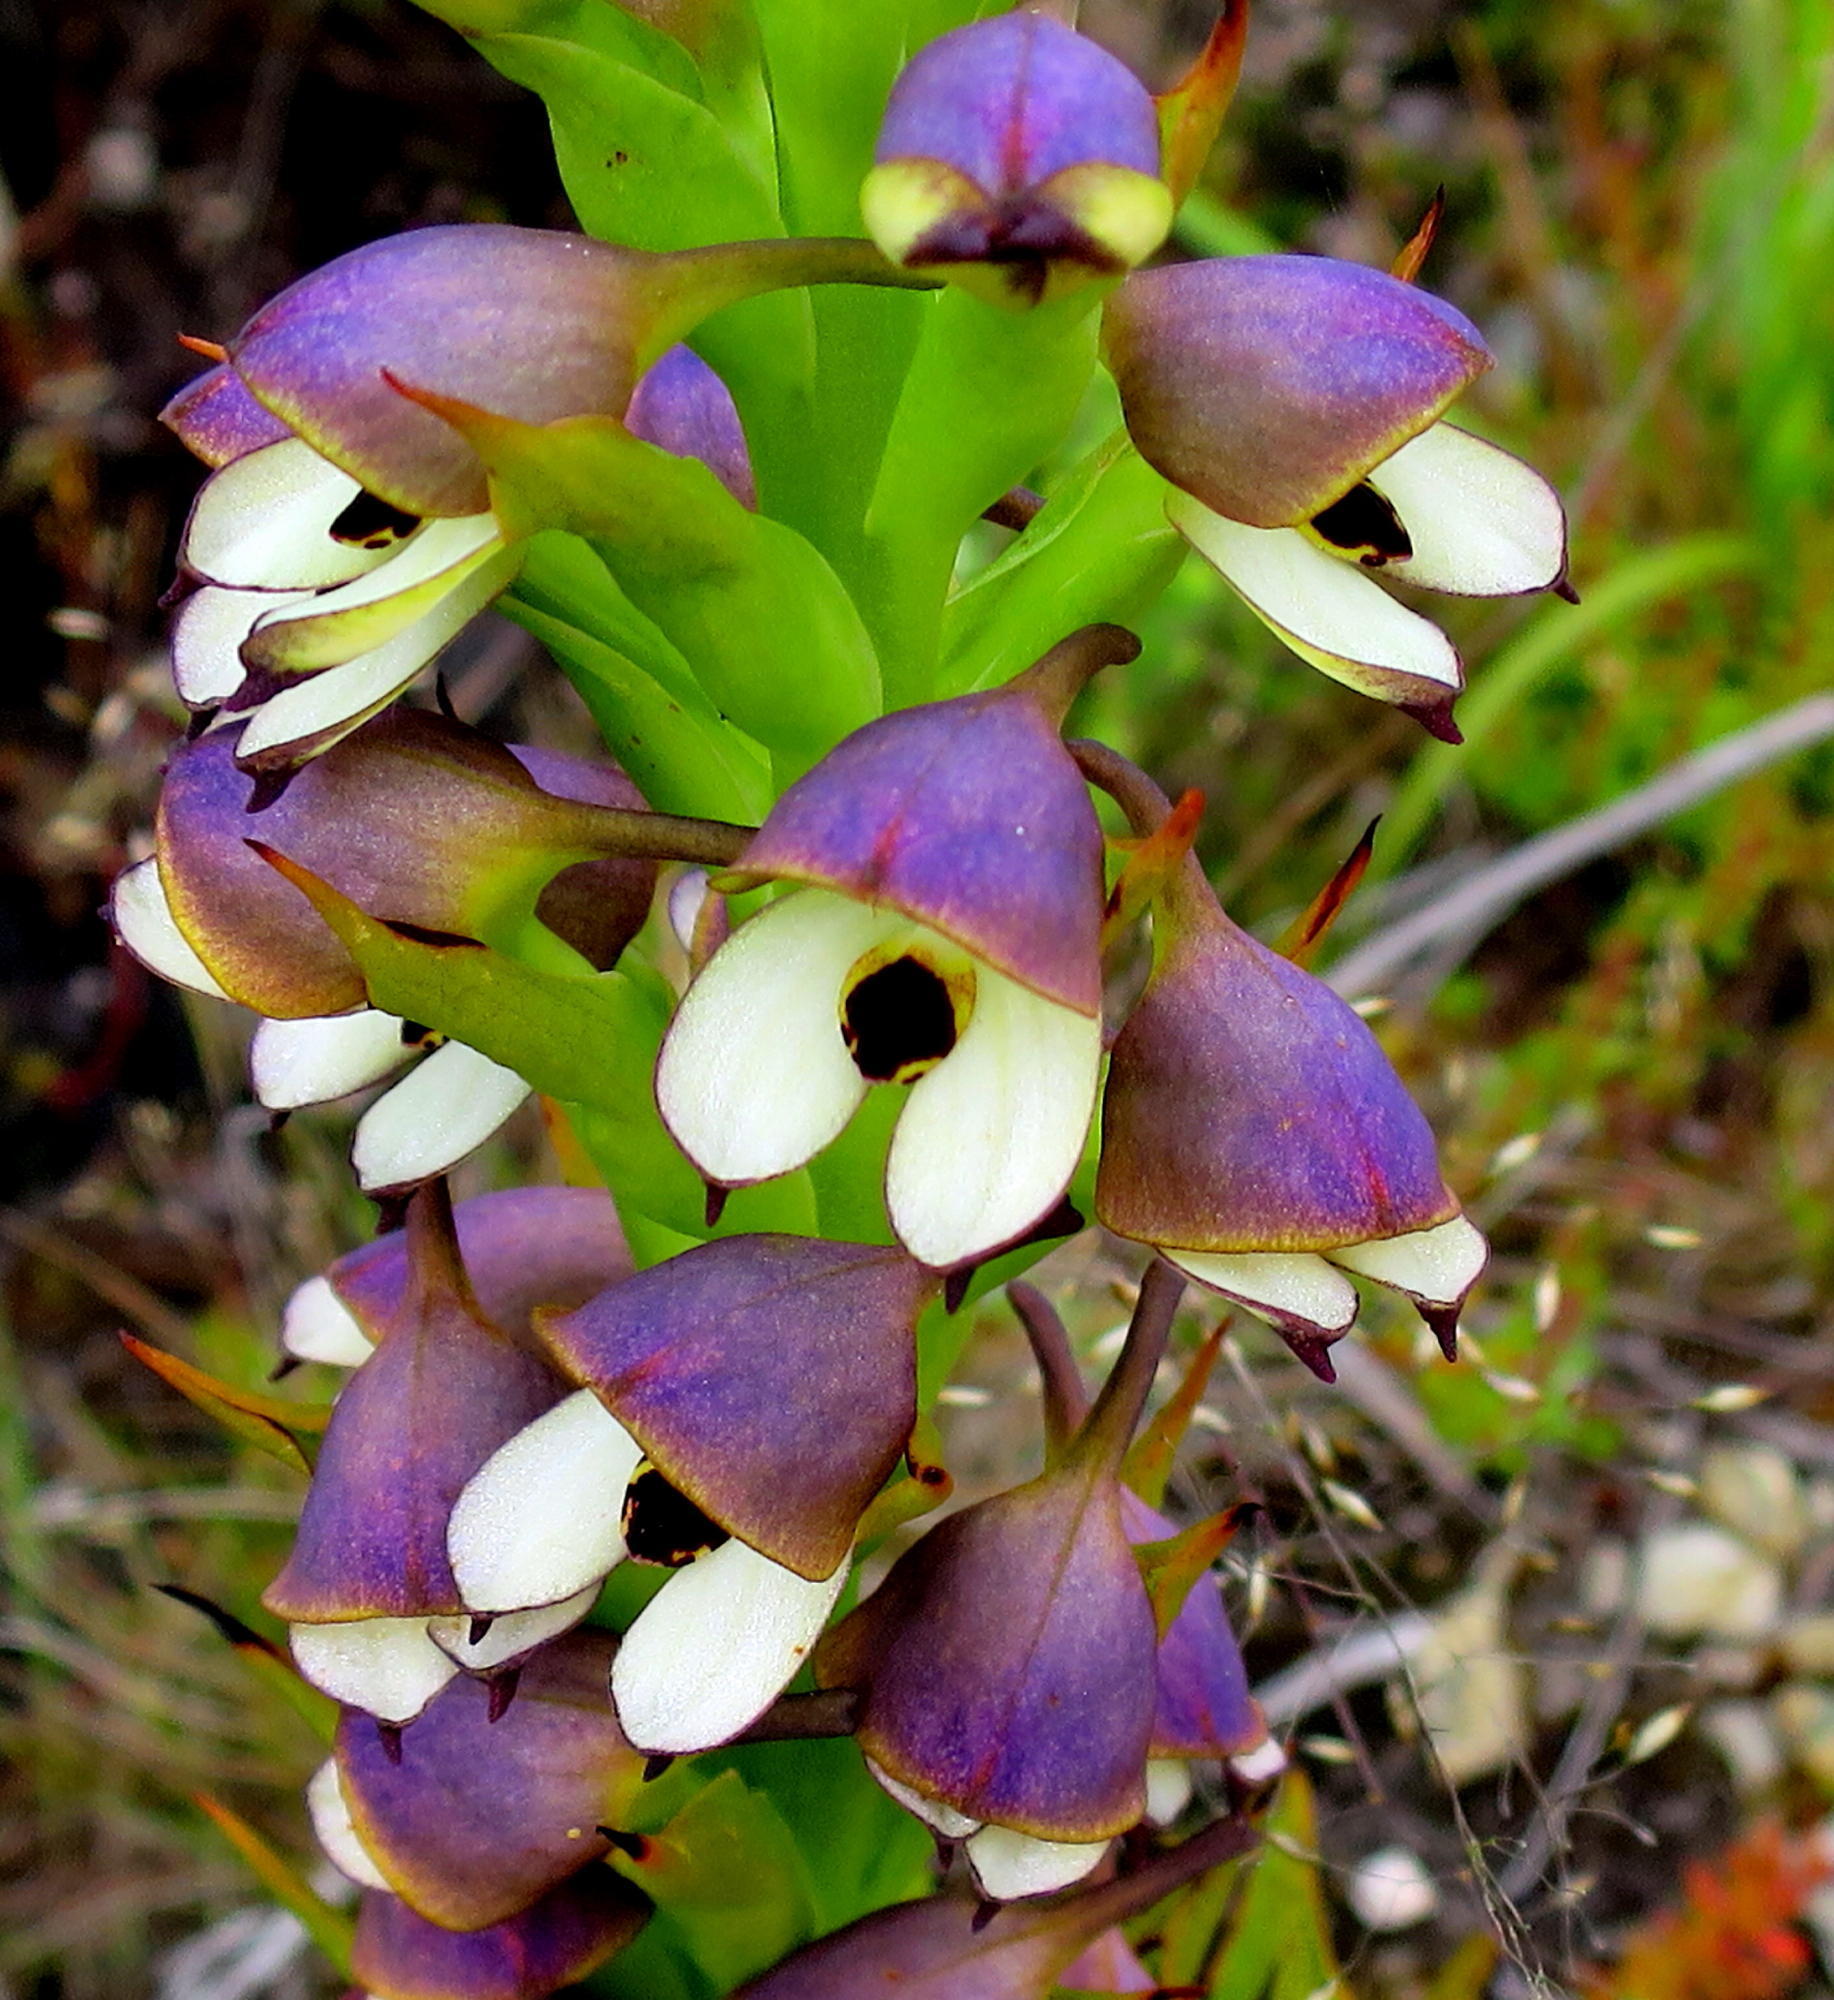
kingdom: Plantae
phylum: Tracheophyta
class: Liliopsida
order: Asparagales
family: Orchidaceae
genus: Disa
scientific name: Disa cornuta
